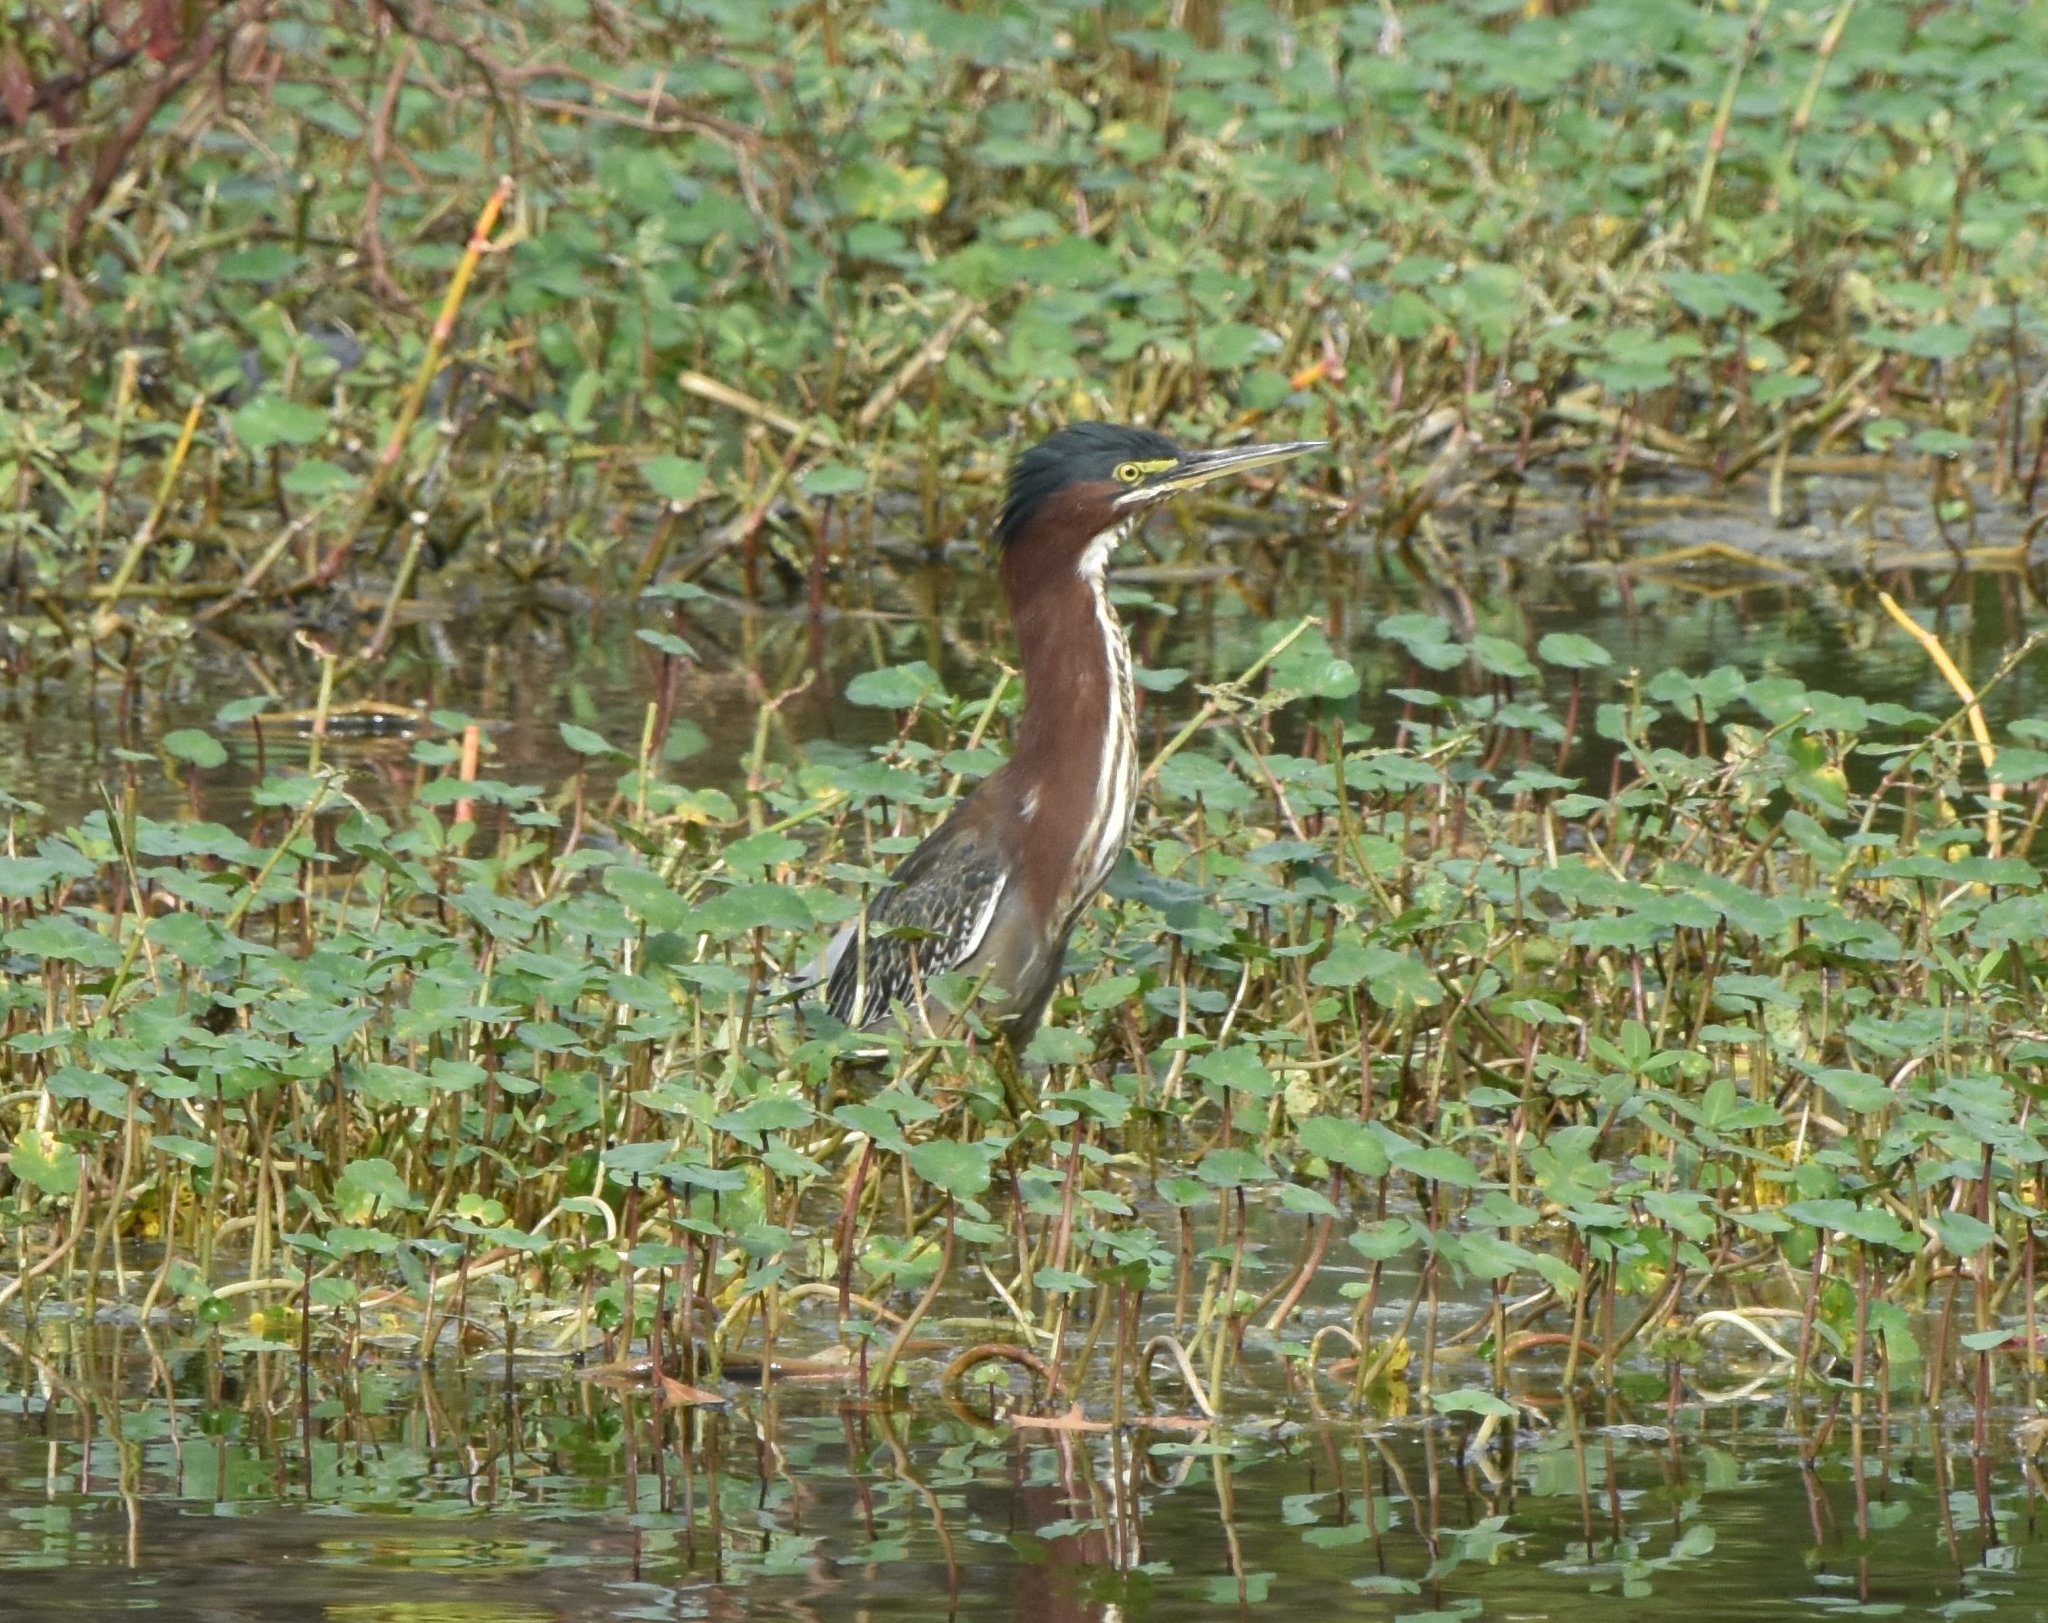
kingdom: Animalia
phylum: Chordata
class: Aves
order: Pelecaniformes
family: Ardeidae
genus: Butorides
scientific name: Butorides virescens
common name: Green heron
